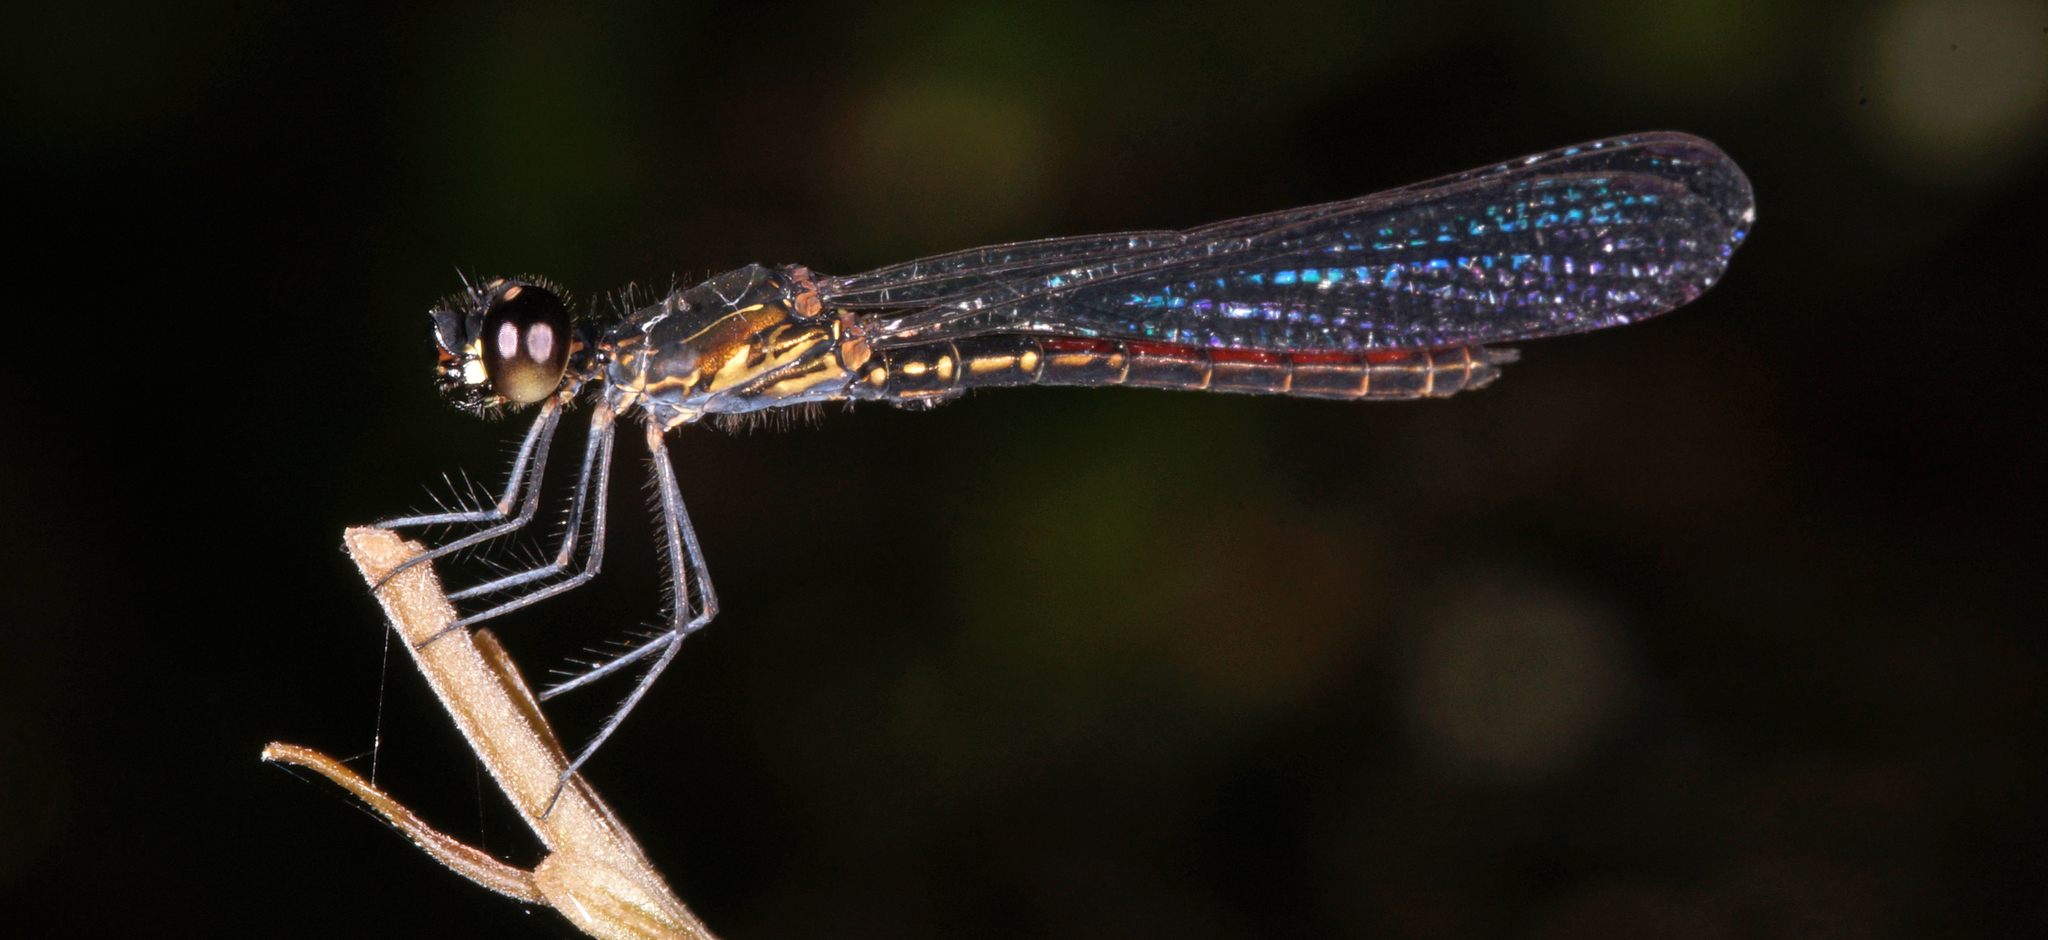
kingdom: Animalia
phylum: Arthropoda
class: Insecta
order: Odonata
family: Chlorocyphidae
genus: Libellago
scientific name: Libellago hyalina
